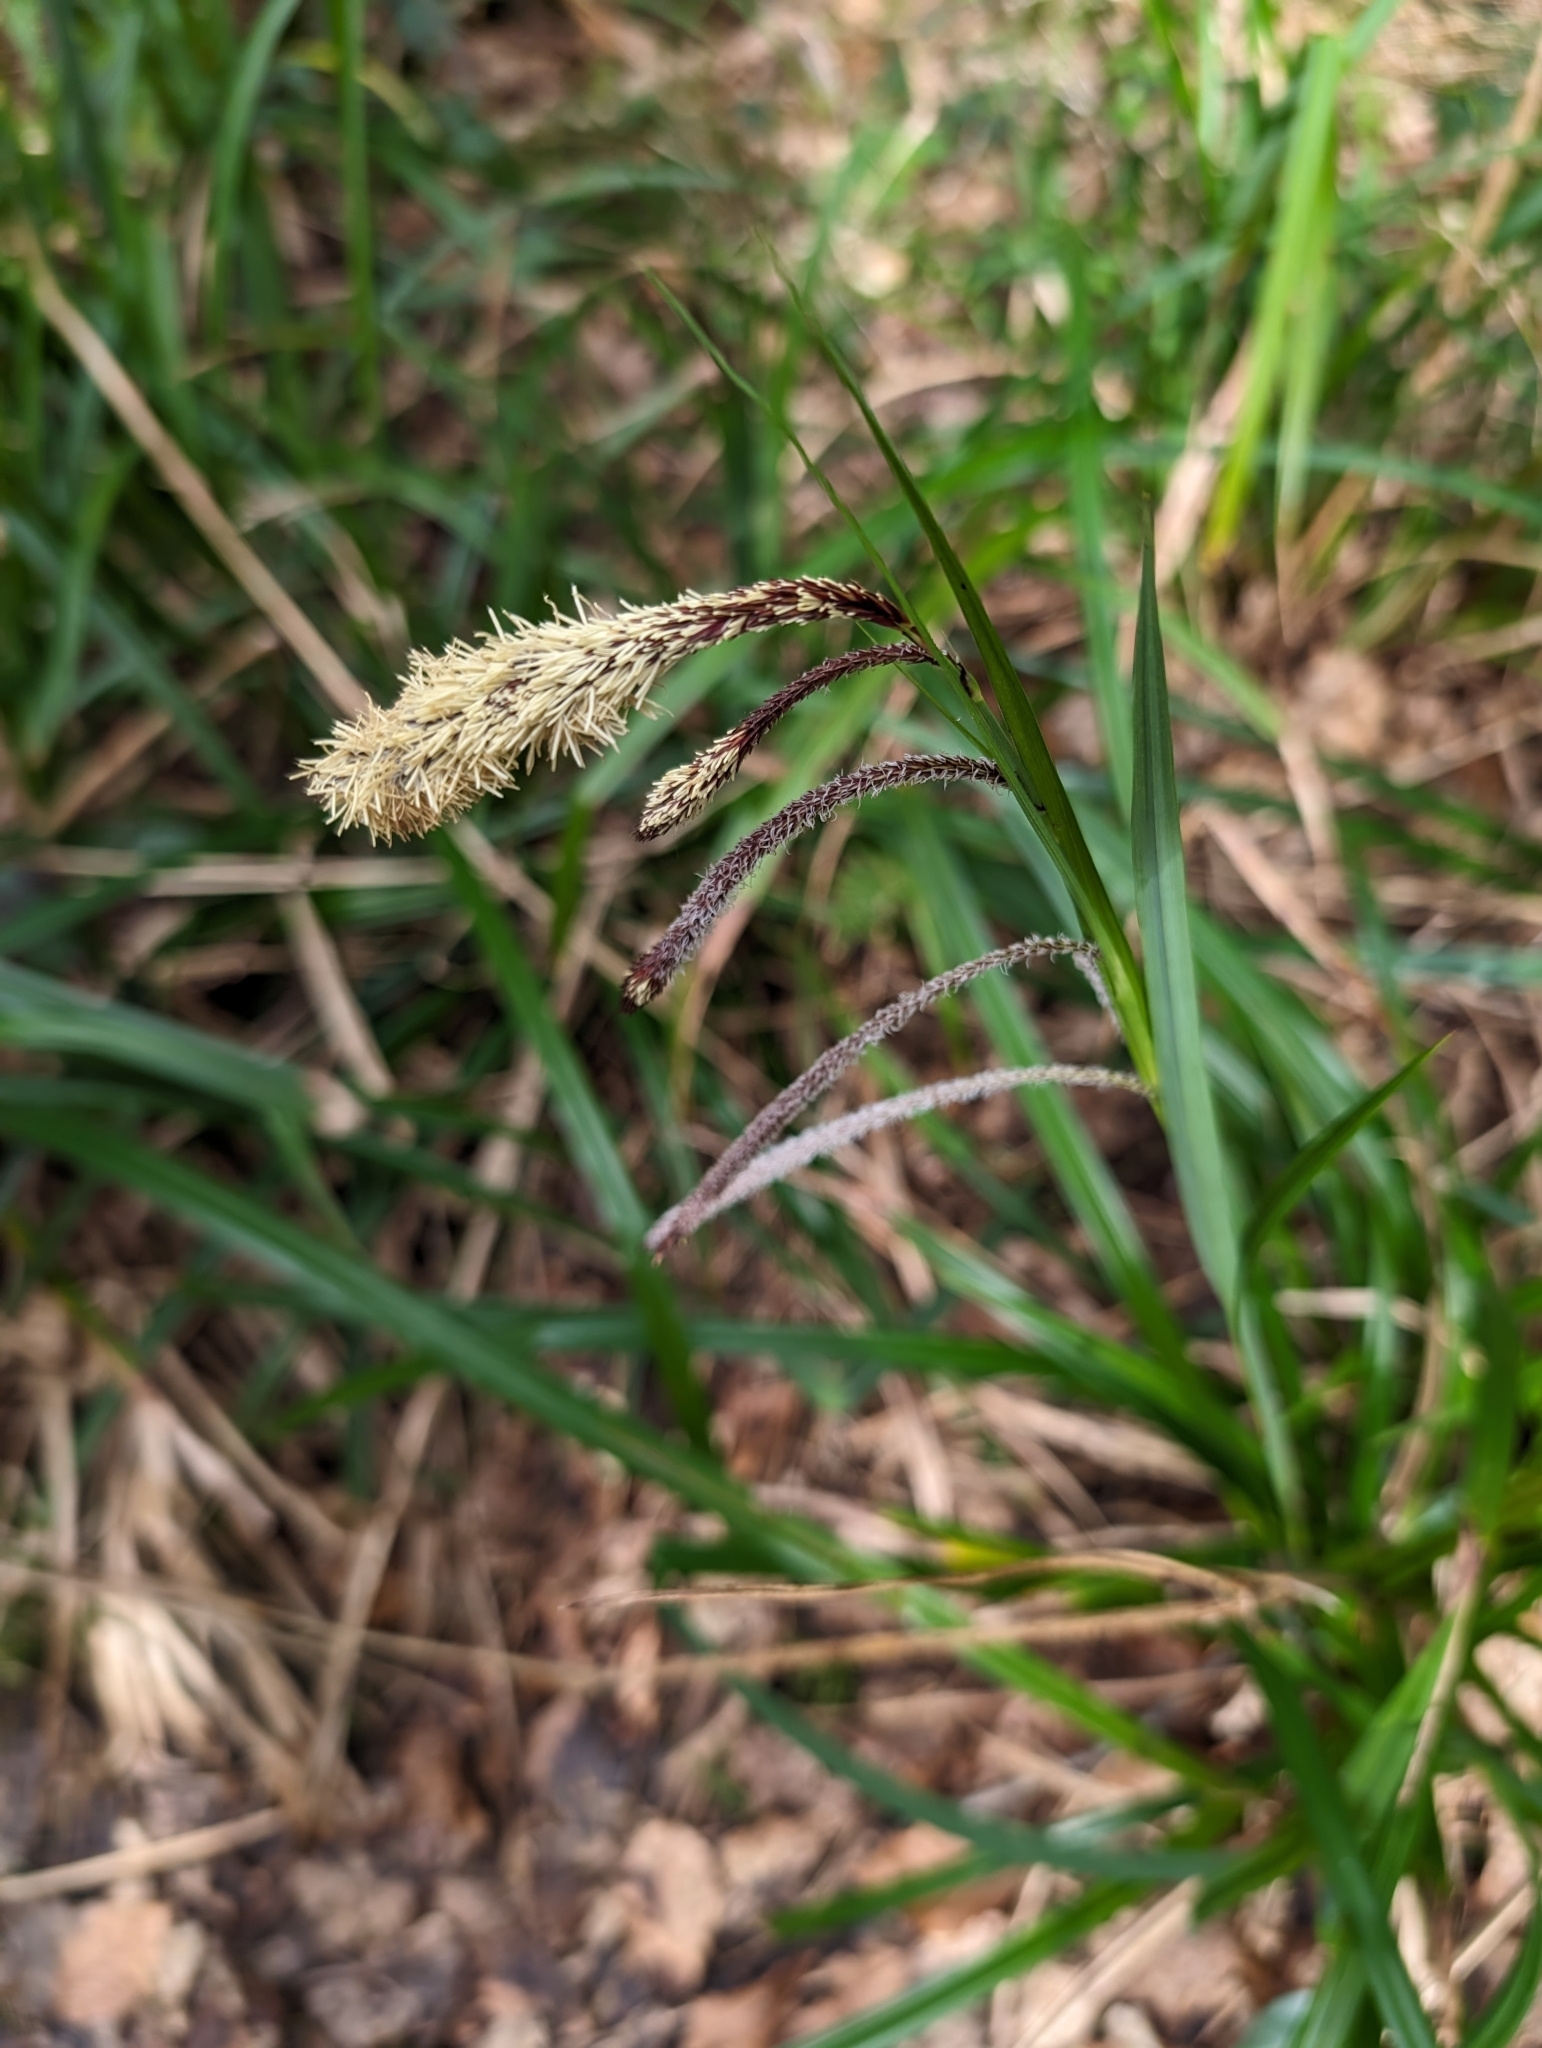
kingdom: Plantae
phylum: Tracheophyta
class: Liliopsida
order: Poales
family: Cyperaceae
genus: Carex
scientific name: Carex pendula
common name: Pendulous sedge
